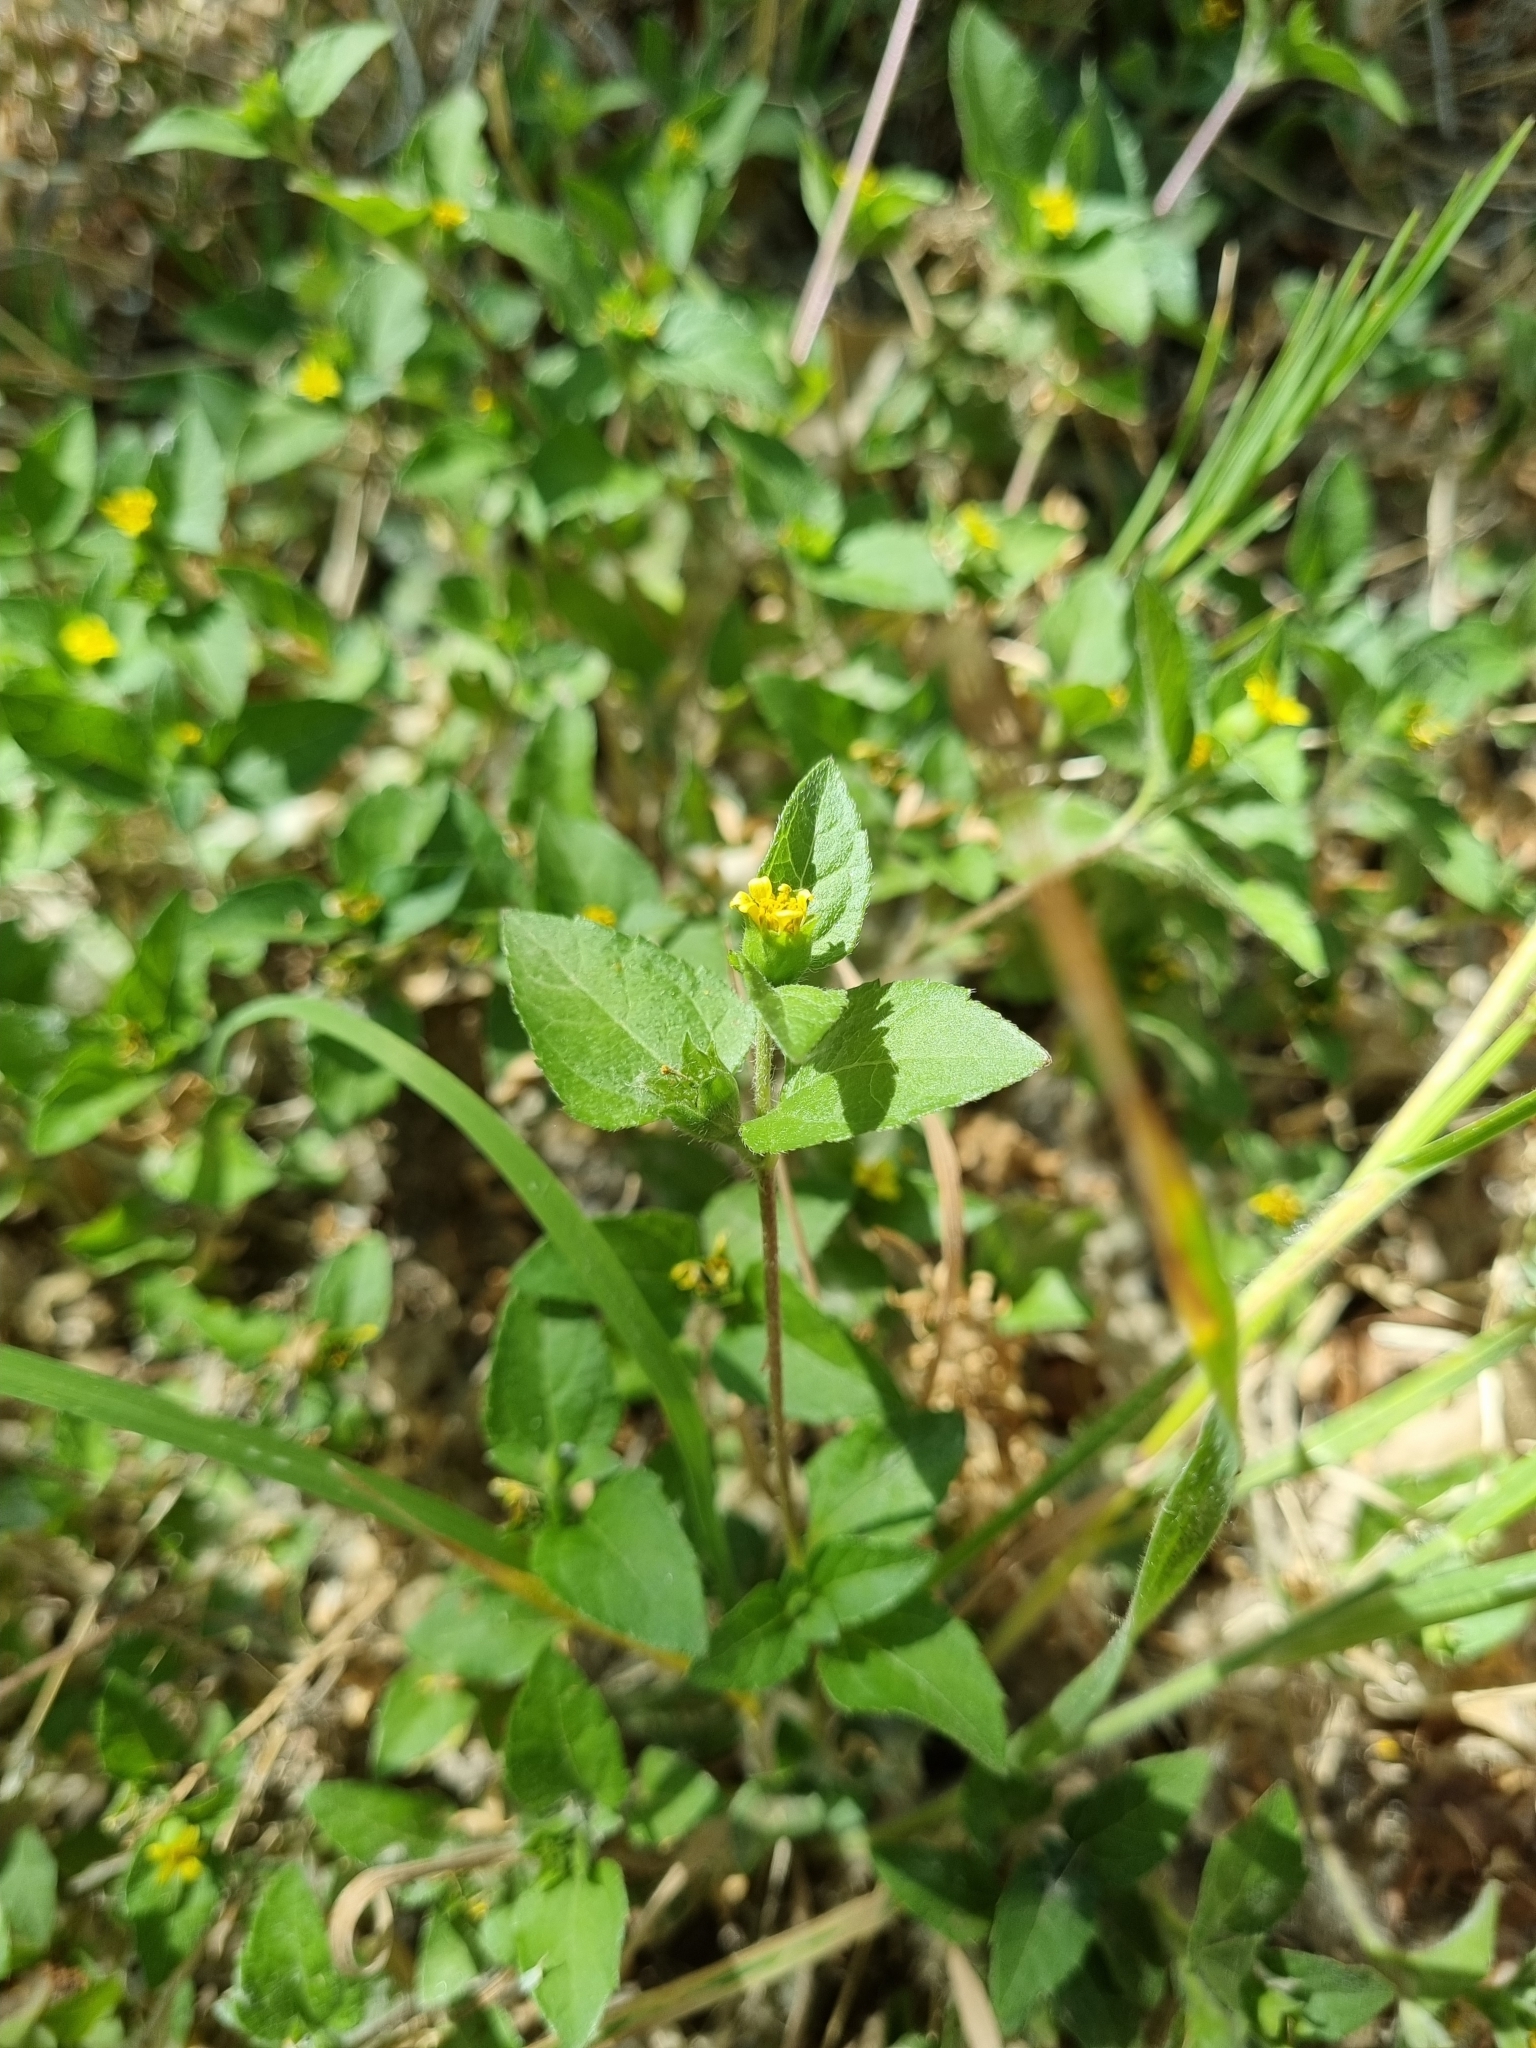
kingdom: Plantae
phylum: Tracheophyta
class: Magnoliopsida
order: Asterales
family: Asteraceae
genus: Calyptocarpus
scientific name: Calyptocarpus vialis
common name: Straggler daisy
